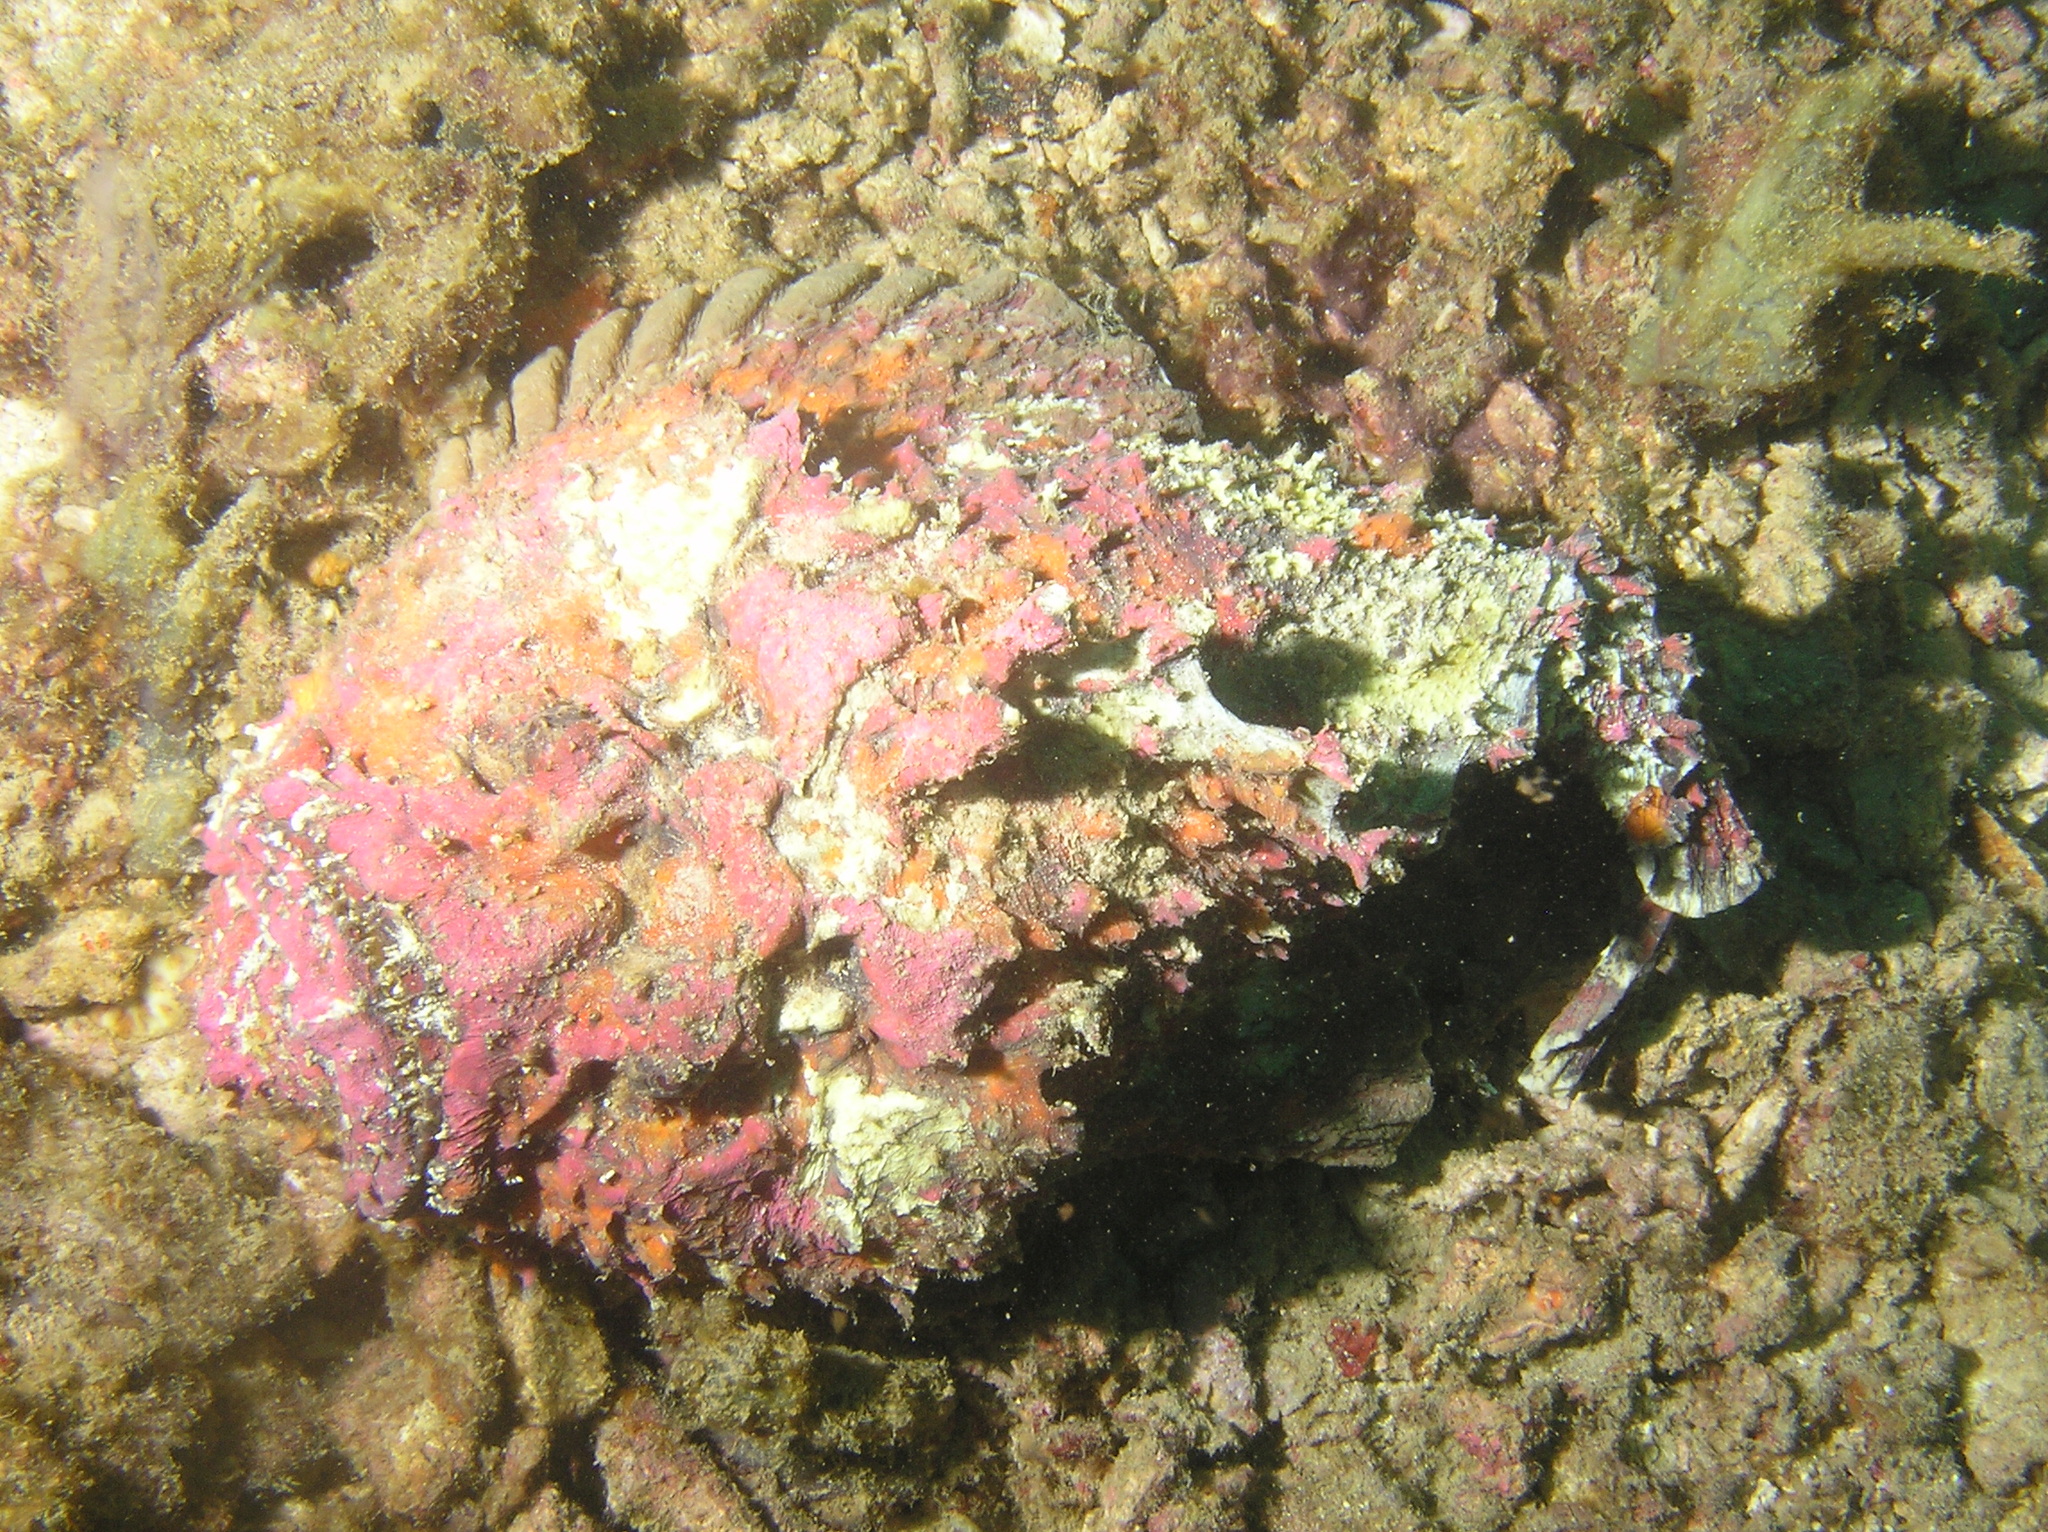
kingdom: Animalia
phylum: Chordata
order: Scorpaeniformes
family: Synanceiidae
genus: Synanceia
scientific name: Synanceia verrucosa
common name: Stonefish
